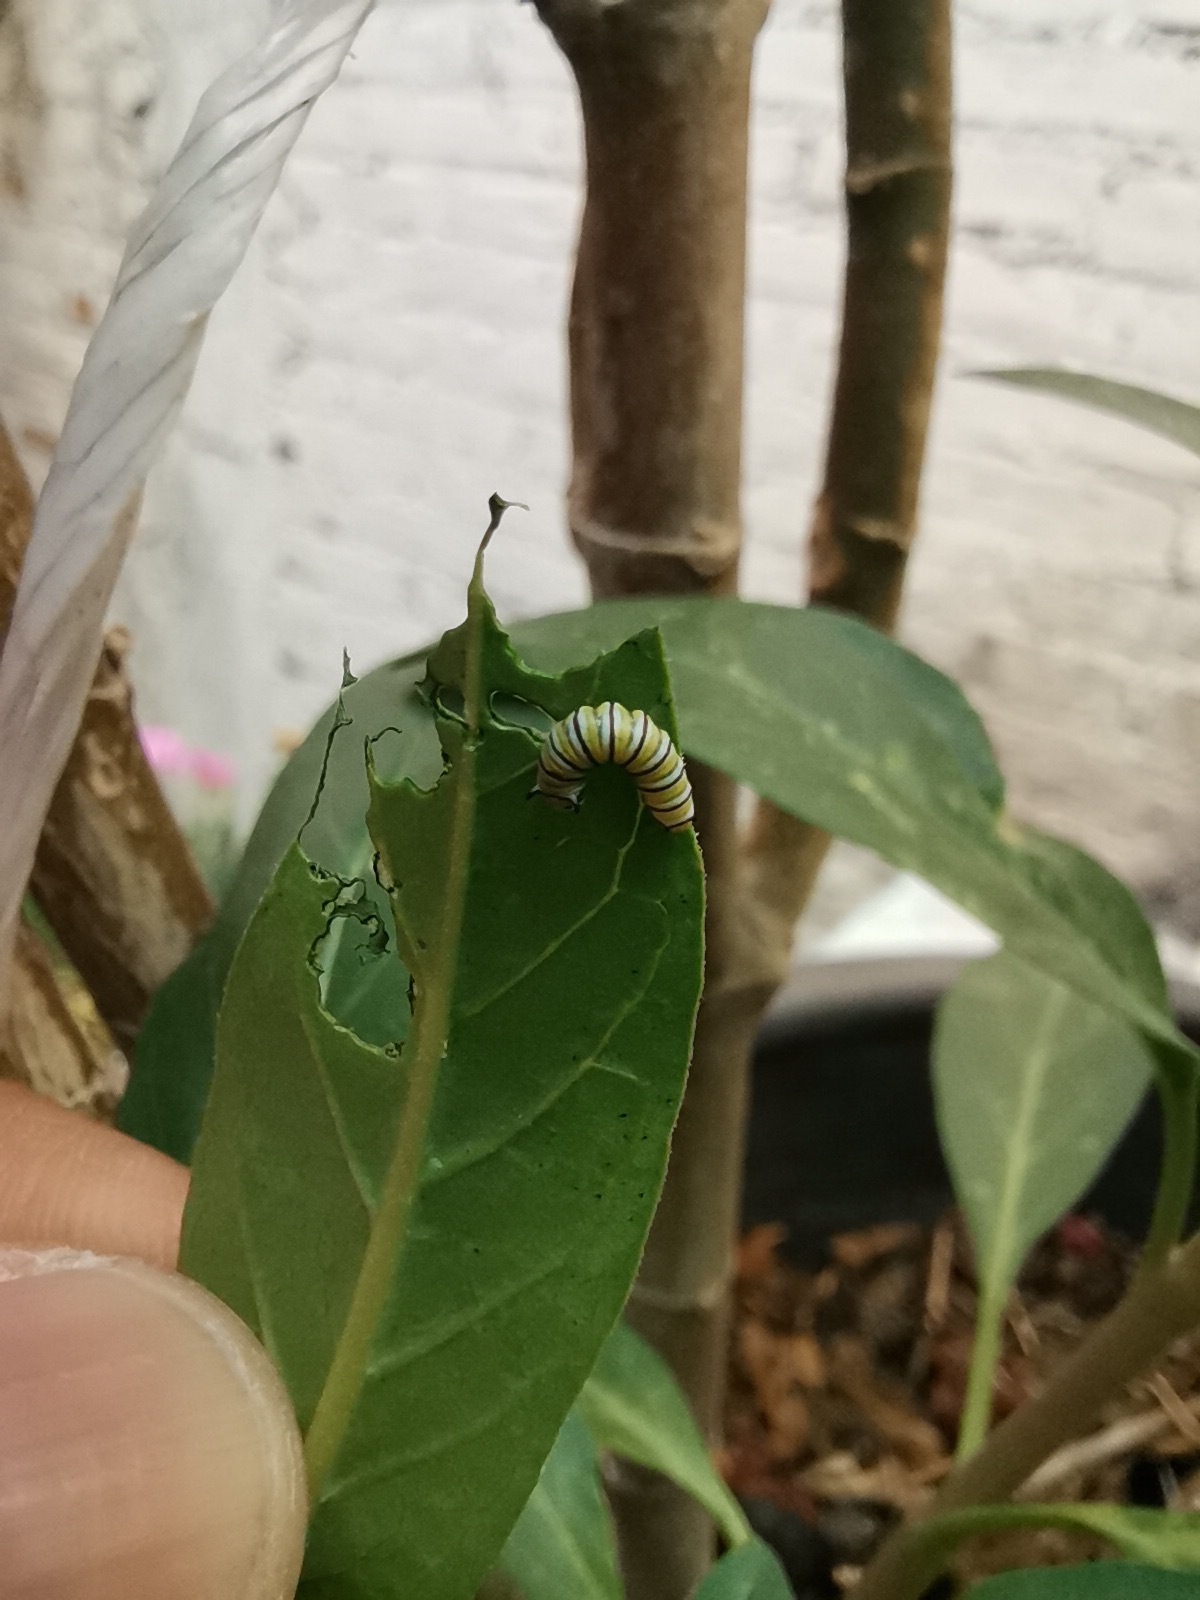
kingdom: Animalia
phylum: Arthropoda
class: Insecta
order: Lepidoptera
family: Nymphalidae
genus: Danaus
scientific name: Danaus plexippus
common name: Monarch
